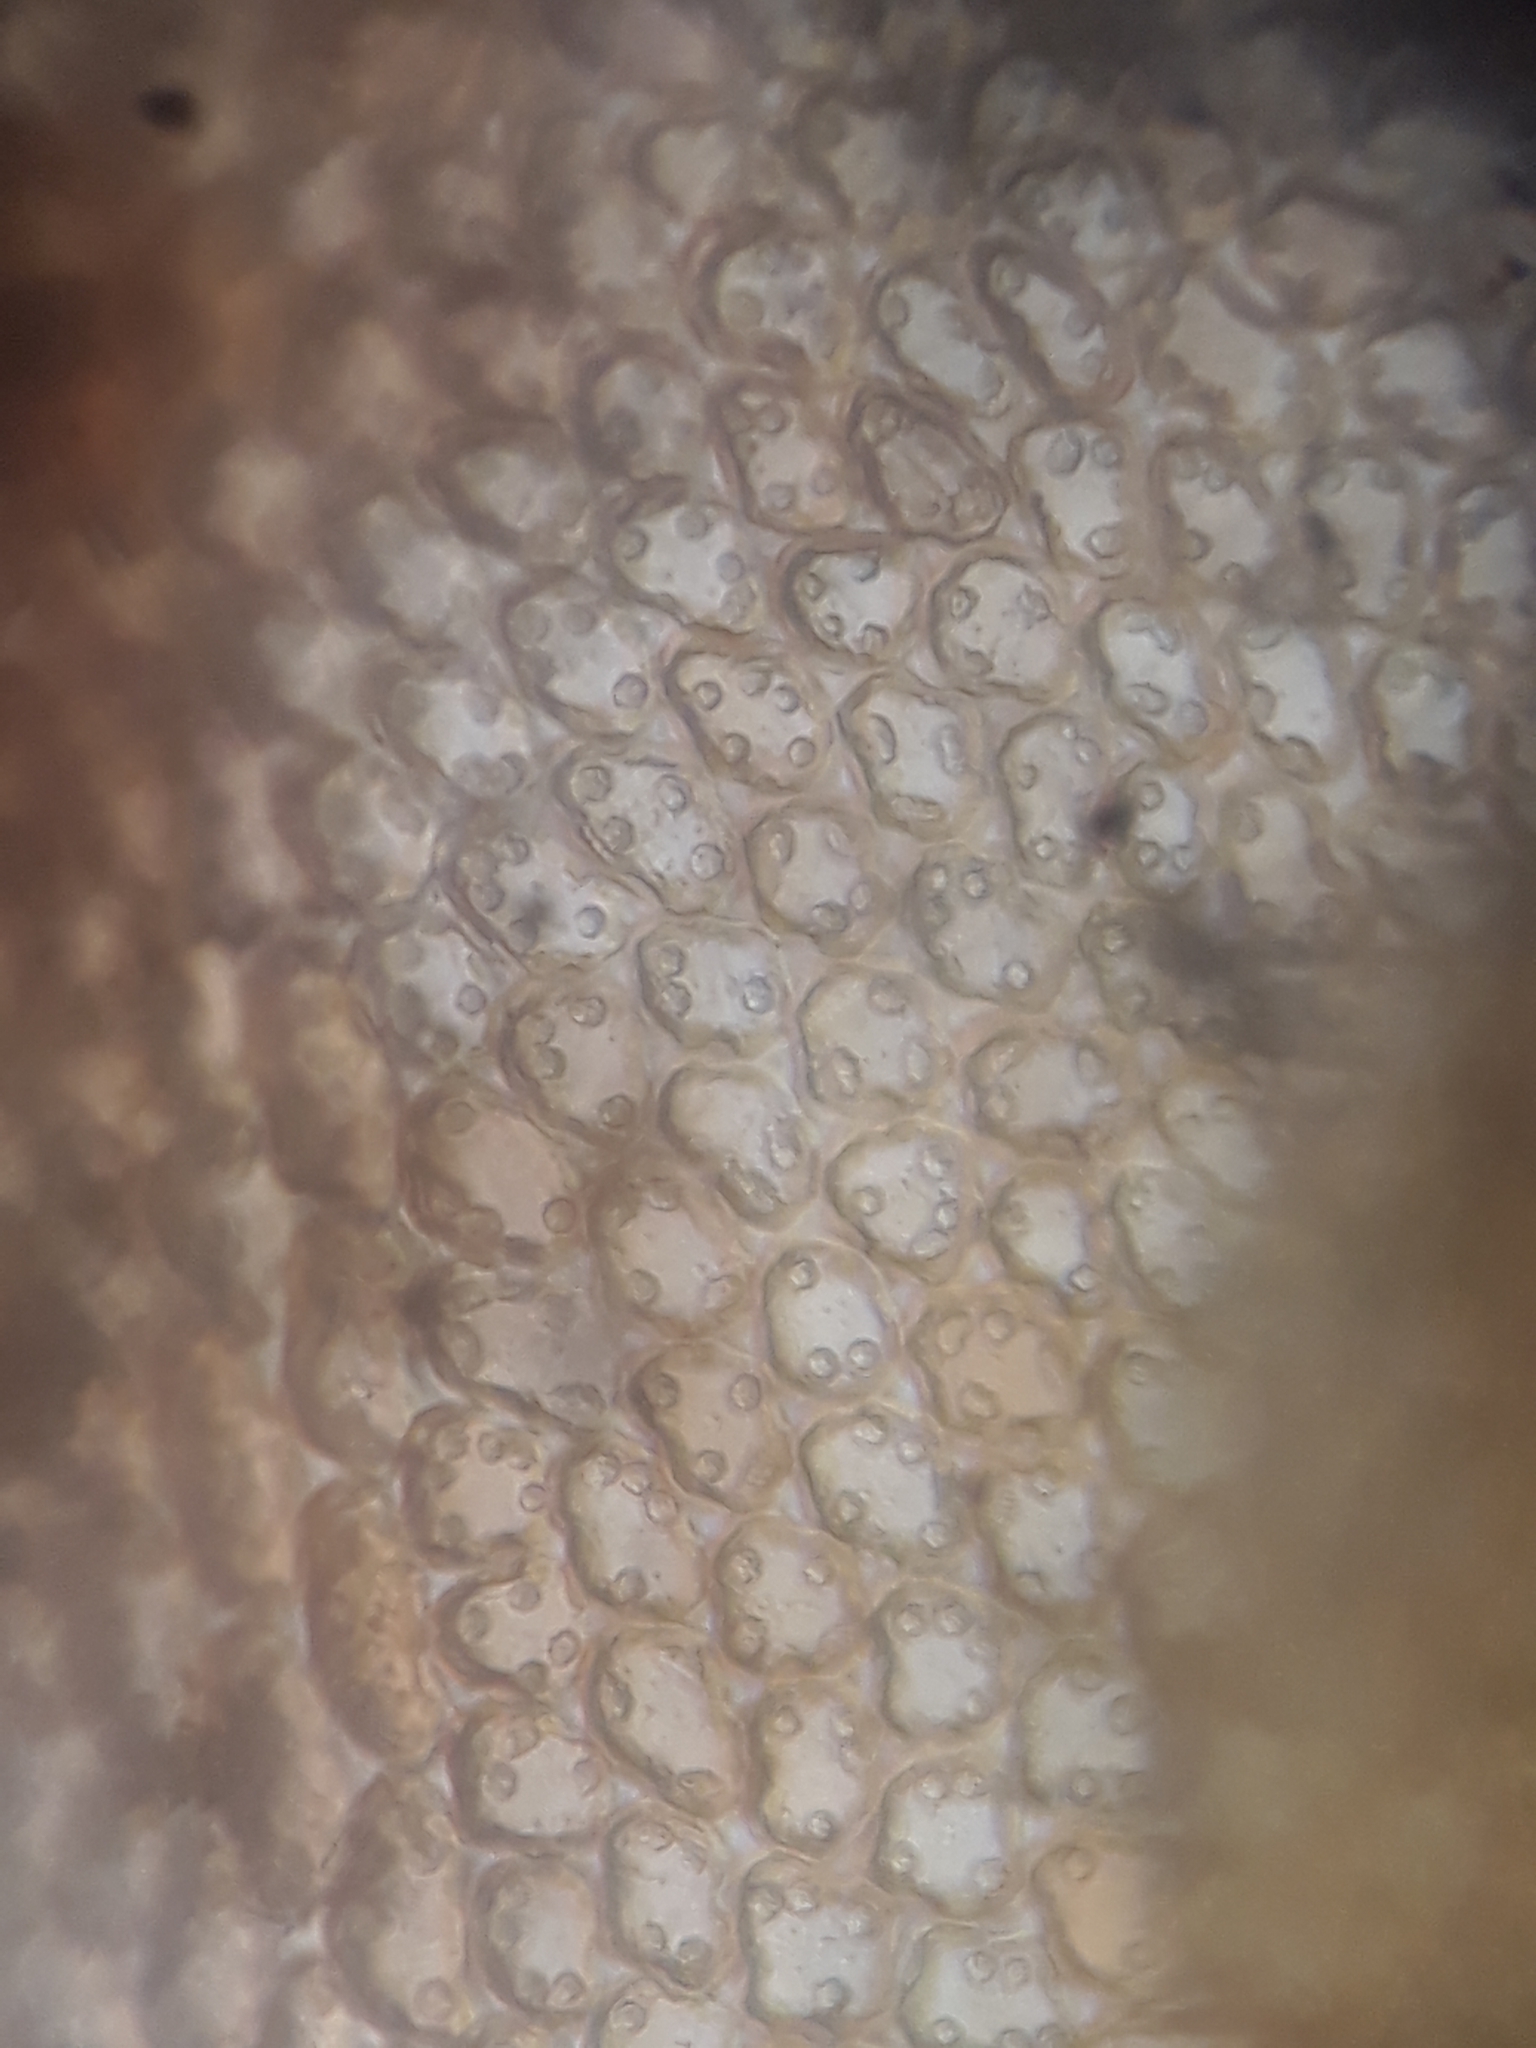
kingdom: Plantae
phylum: Marchantiophyta
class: Jungermanniopsida
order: Porellales
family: Frullaniaceae
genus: Frullania
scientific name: Frullania anomala
